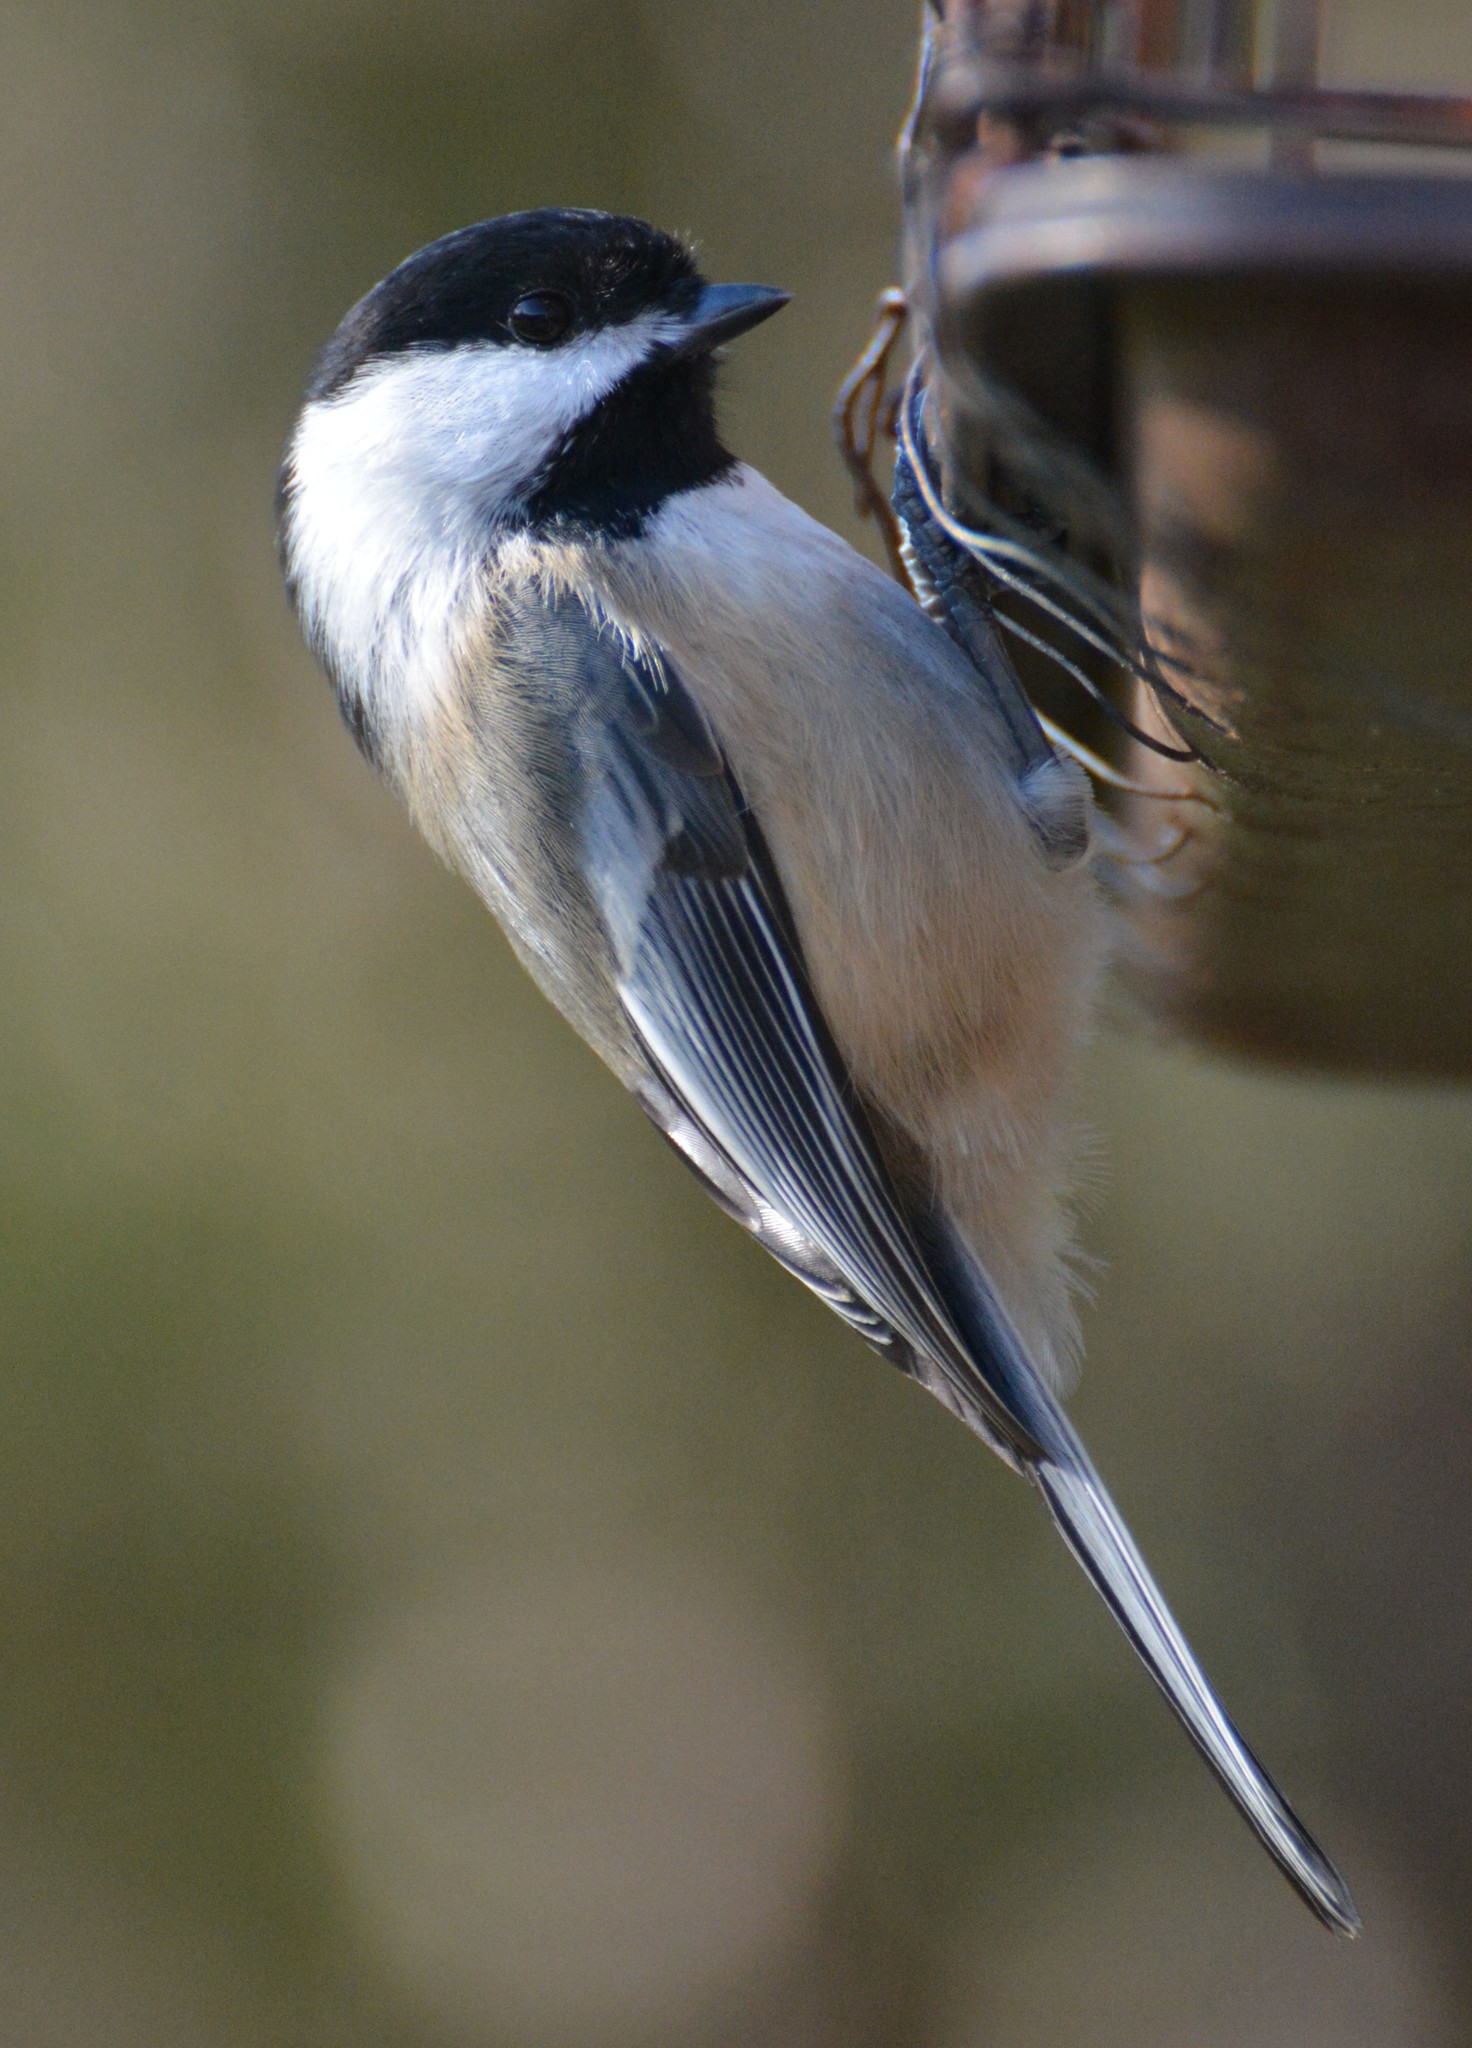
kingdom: Animalia
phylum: Chordata
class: Aves
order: Passeriformes
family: Paridae
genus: Poecile
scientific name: Poecile atricapillus
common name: Black-capped chickadee
